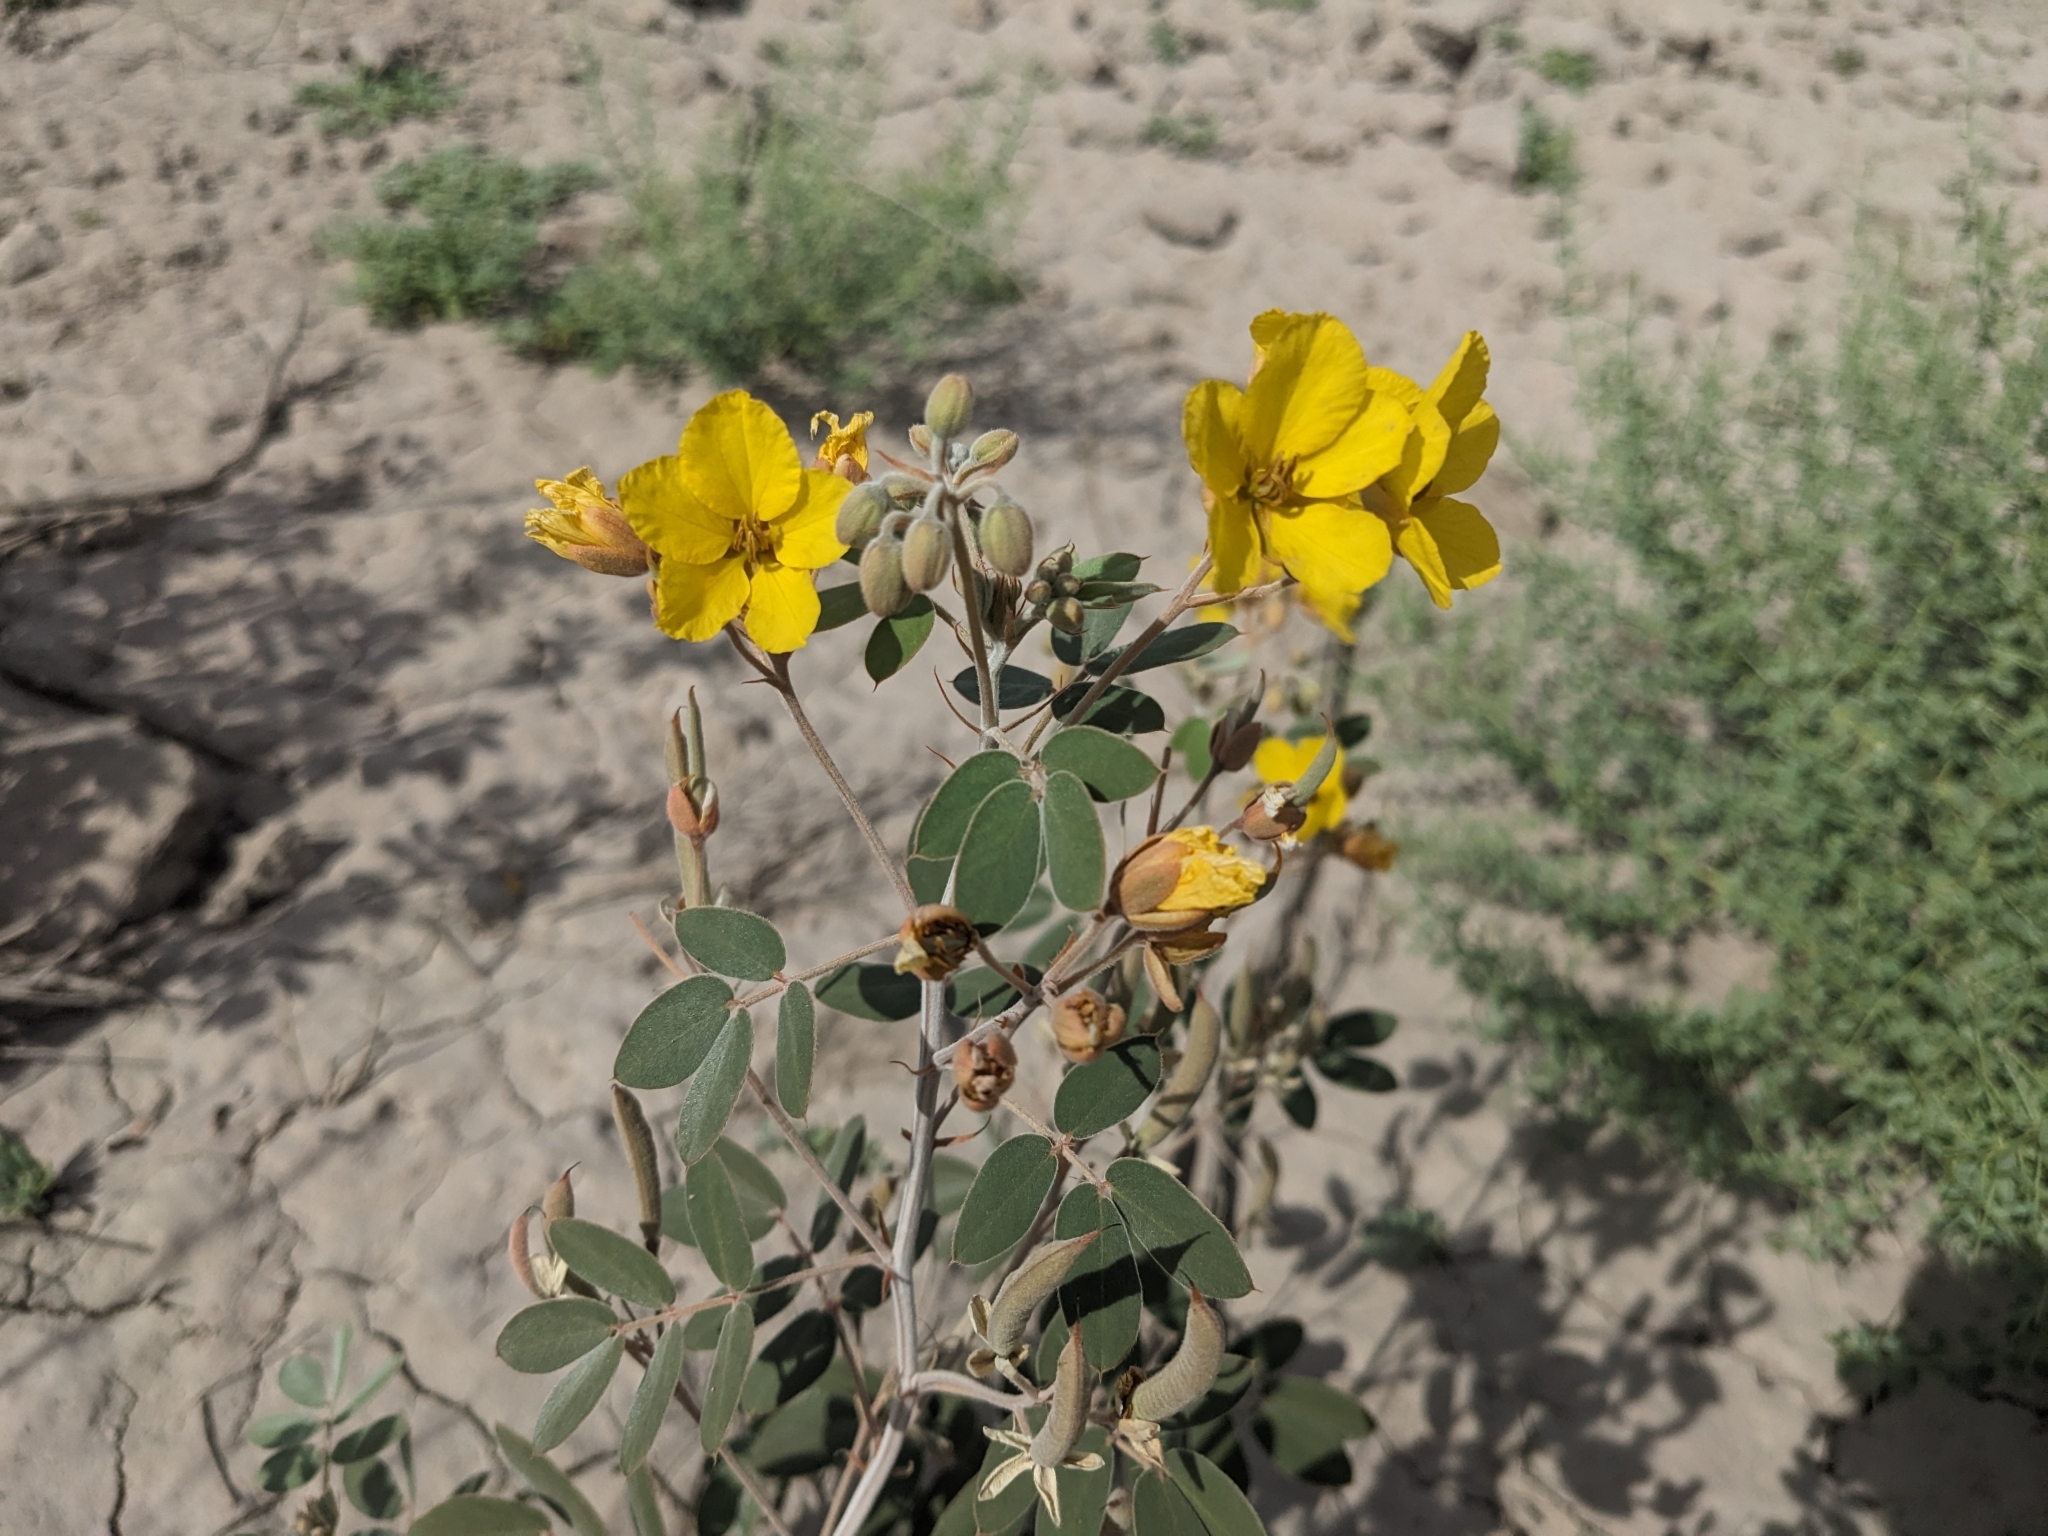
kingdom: Plantae
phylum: Tracheophyta
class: Magnoliopsida
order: Fabales
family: Fabaceae
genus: Senna
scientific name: Senna covesii
